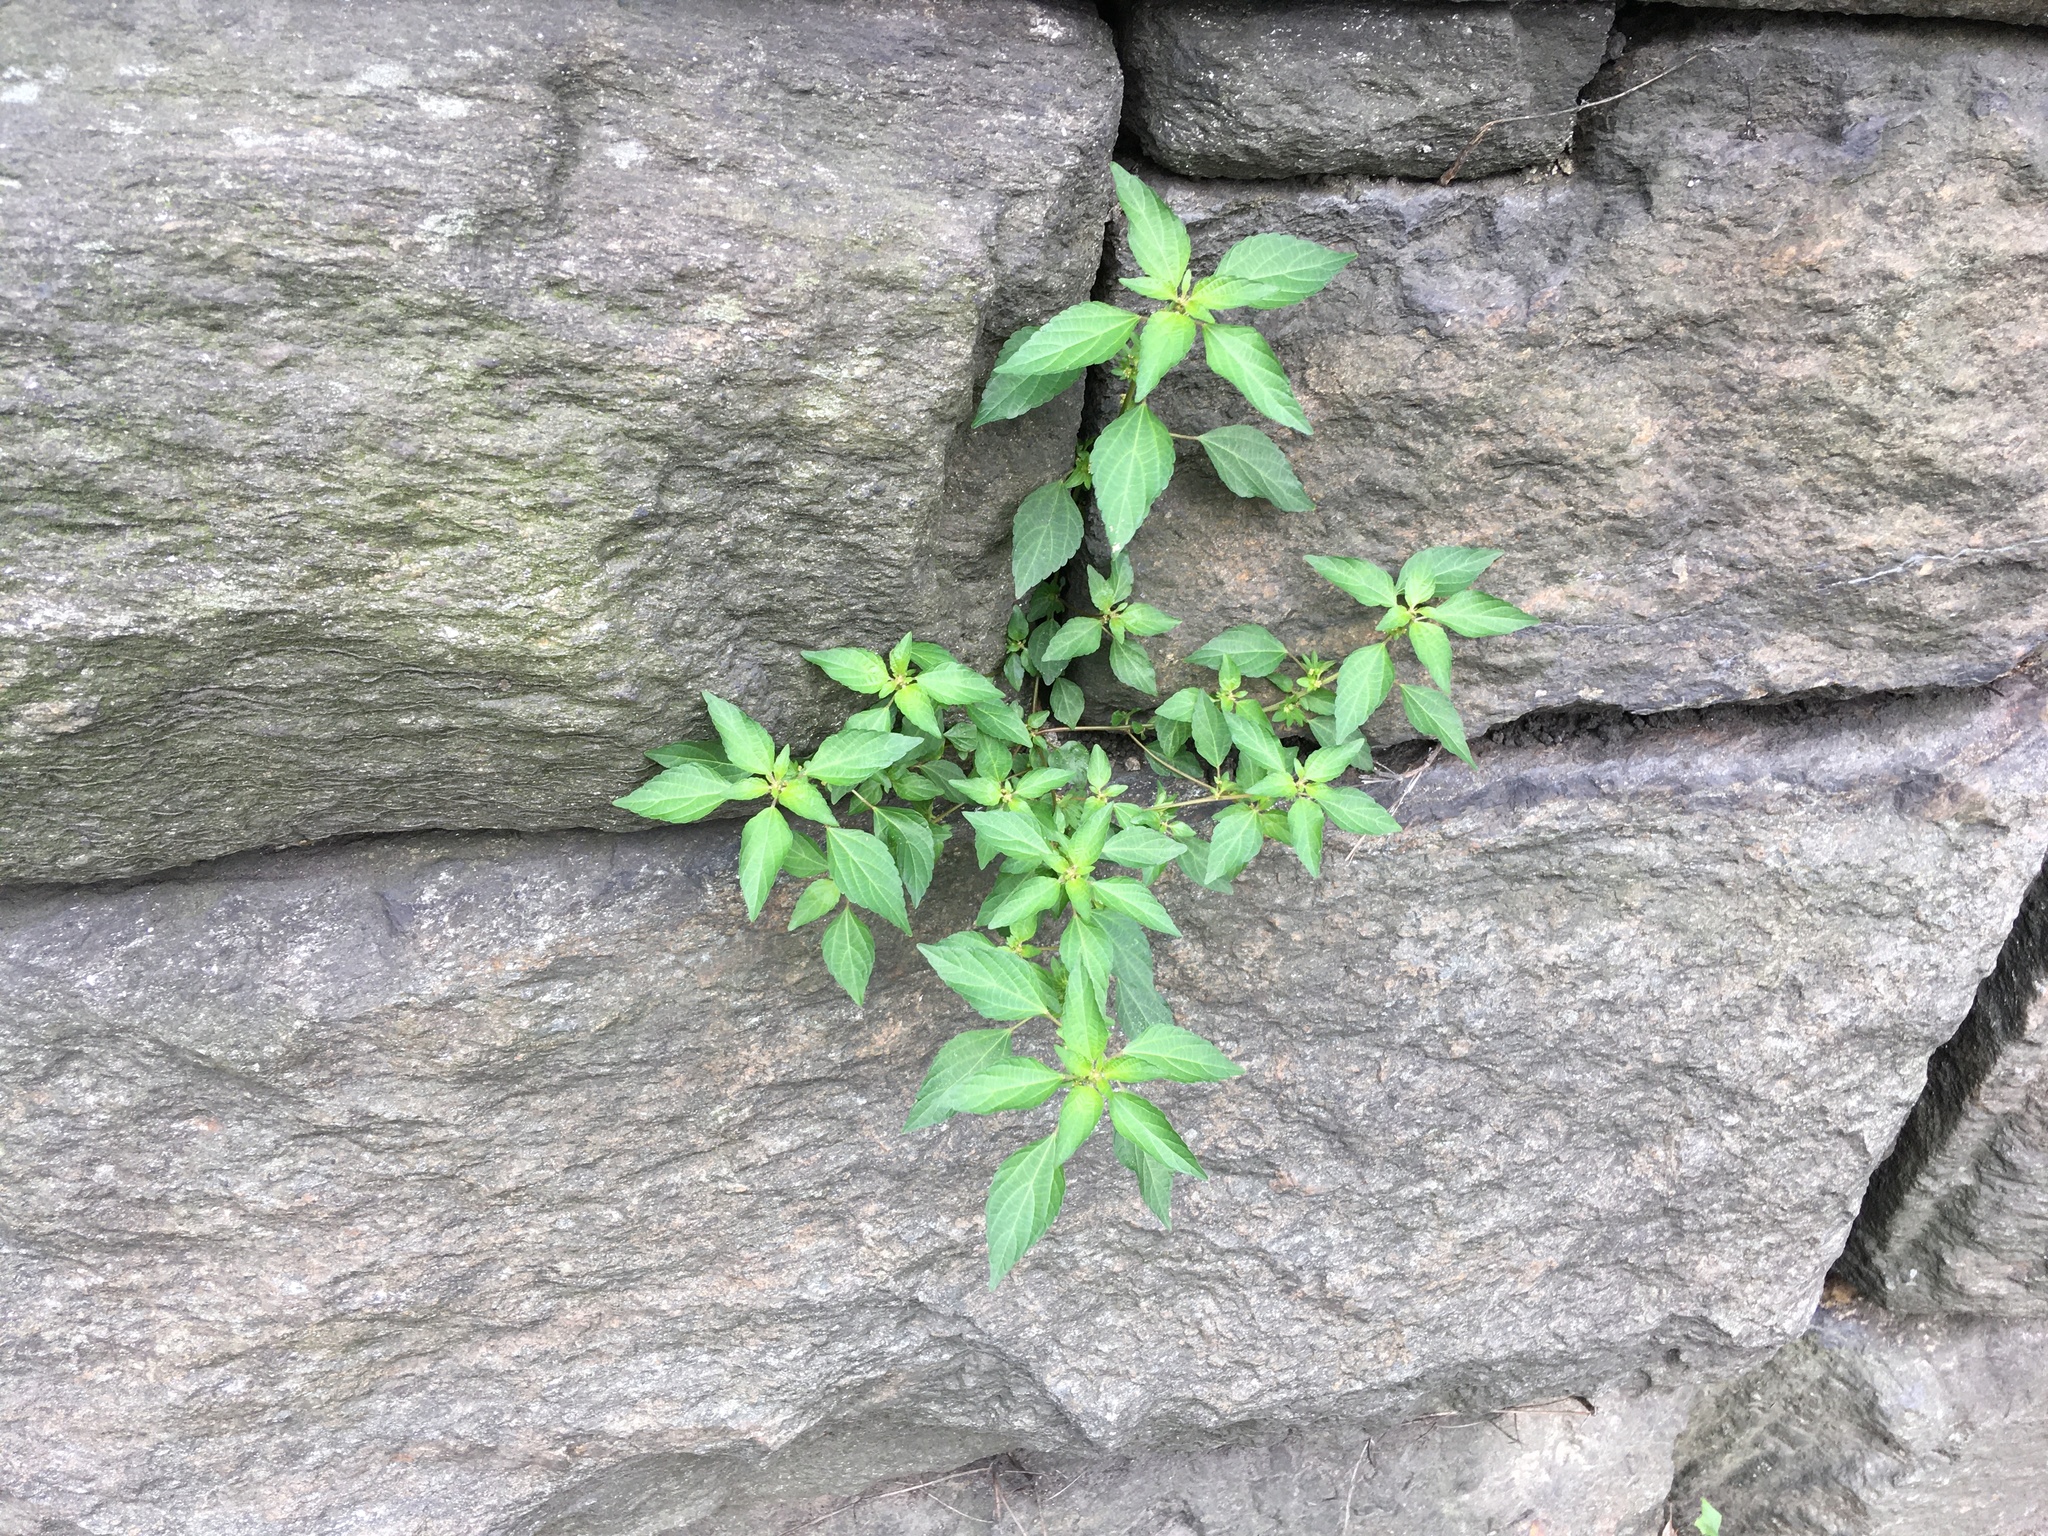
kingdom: Plantae
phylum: Tracheophyta
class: Magnoliopsida
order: Malpighiales
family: Euphorbiaceae
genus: Acalypha
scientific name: Acalypha rhomboidea
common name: Rhombic copperleaf
